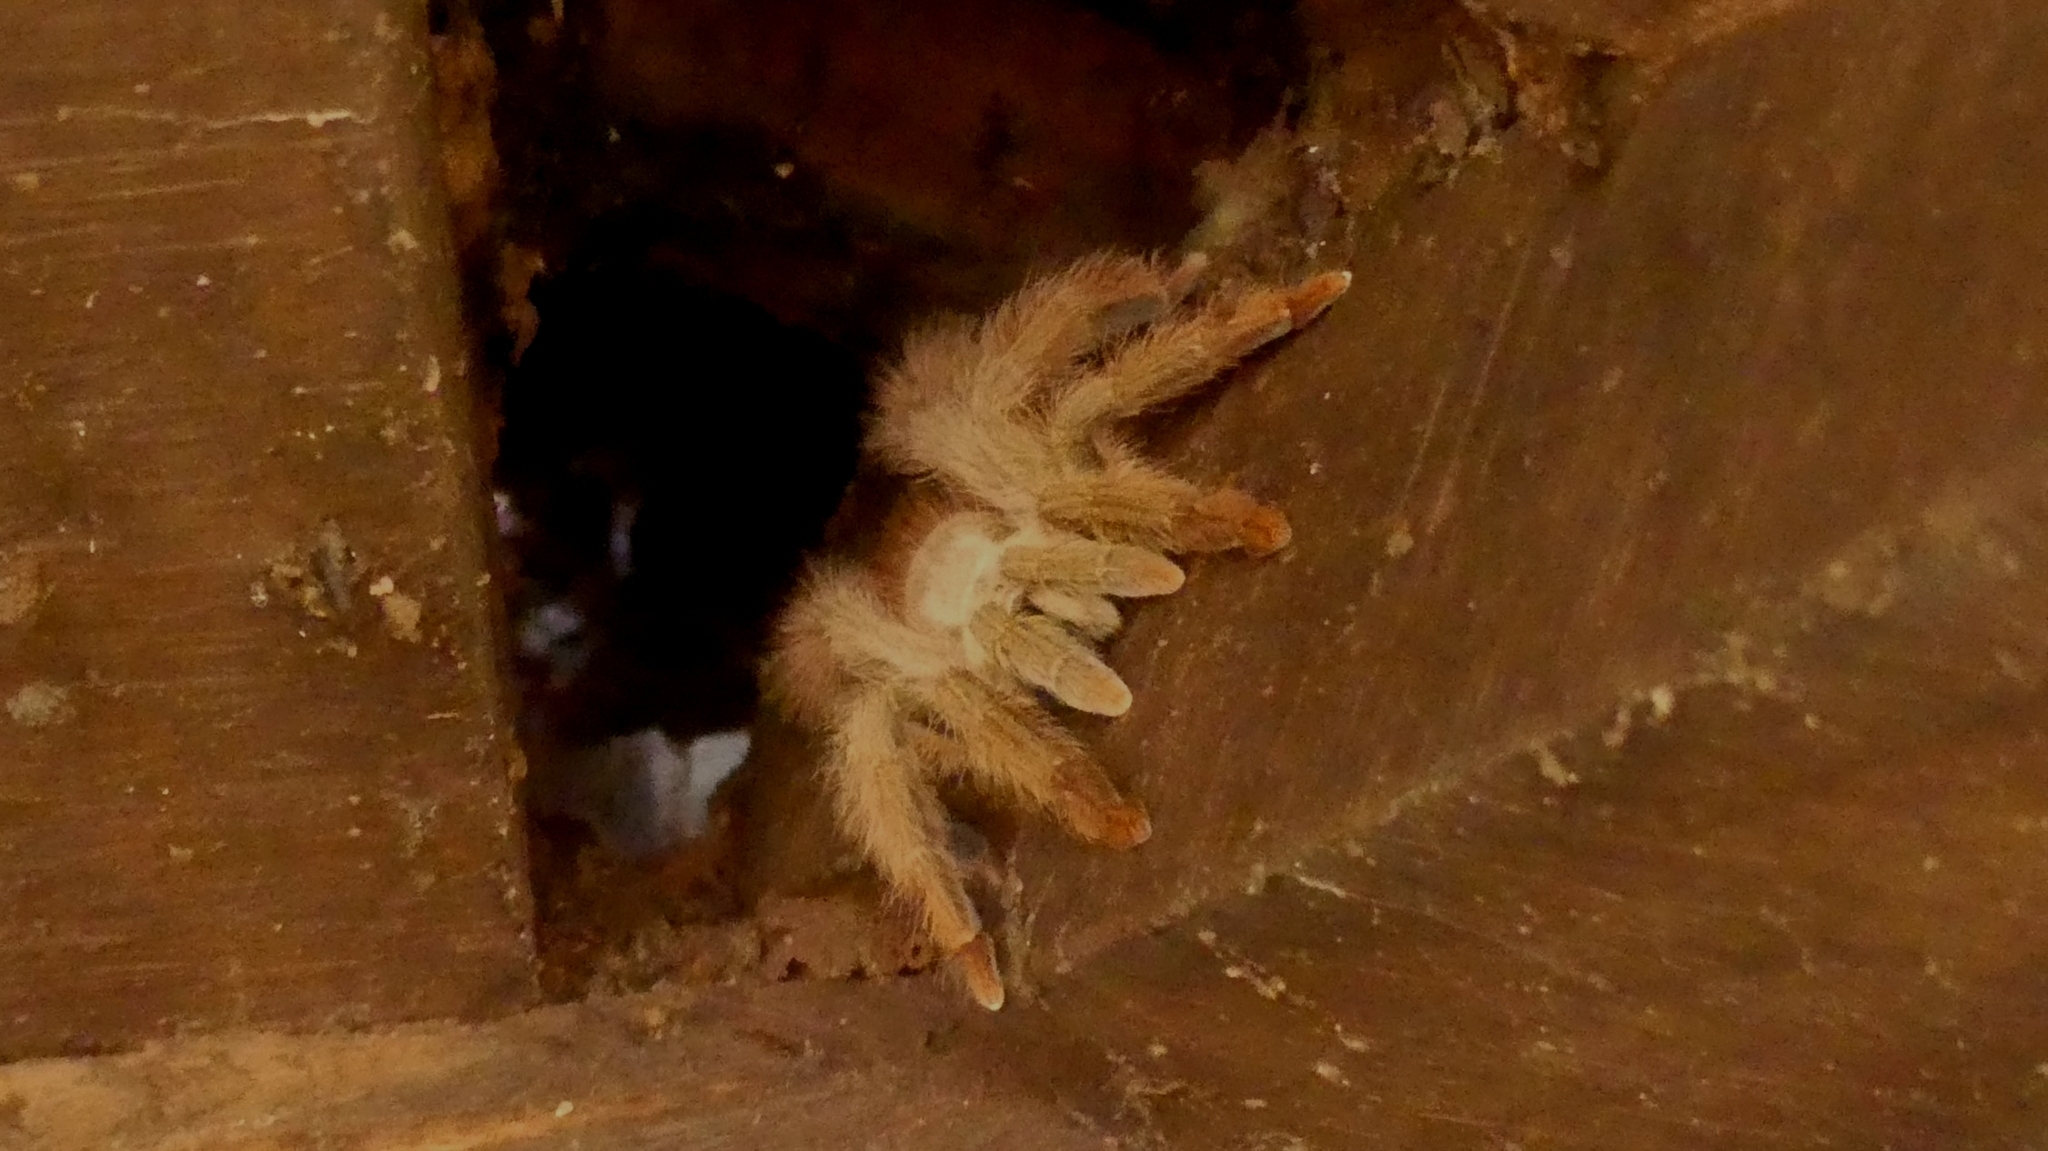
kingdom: Animalia
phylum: Arthropoda
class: Arachnida
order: Araneae
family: Theraphosidae
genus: Amazonius
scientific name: Amazonius germani
